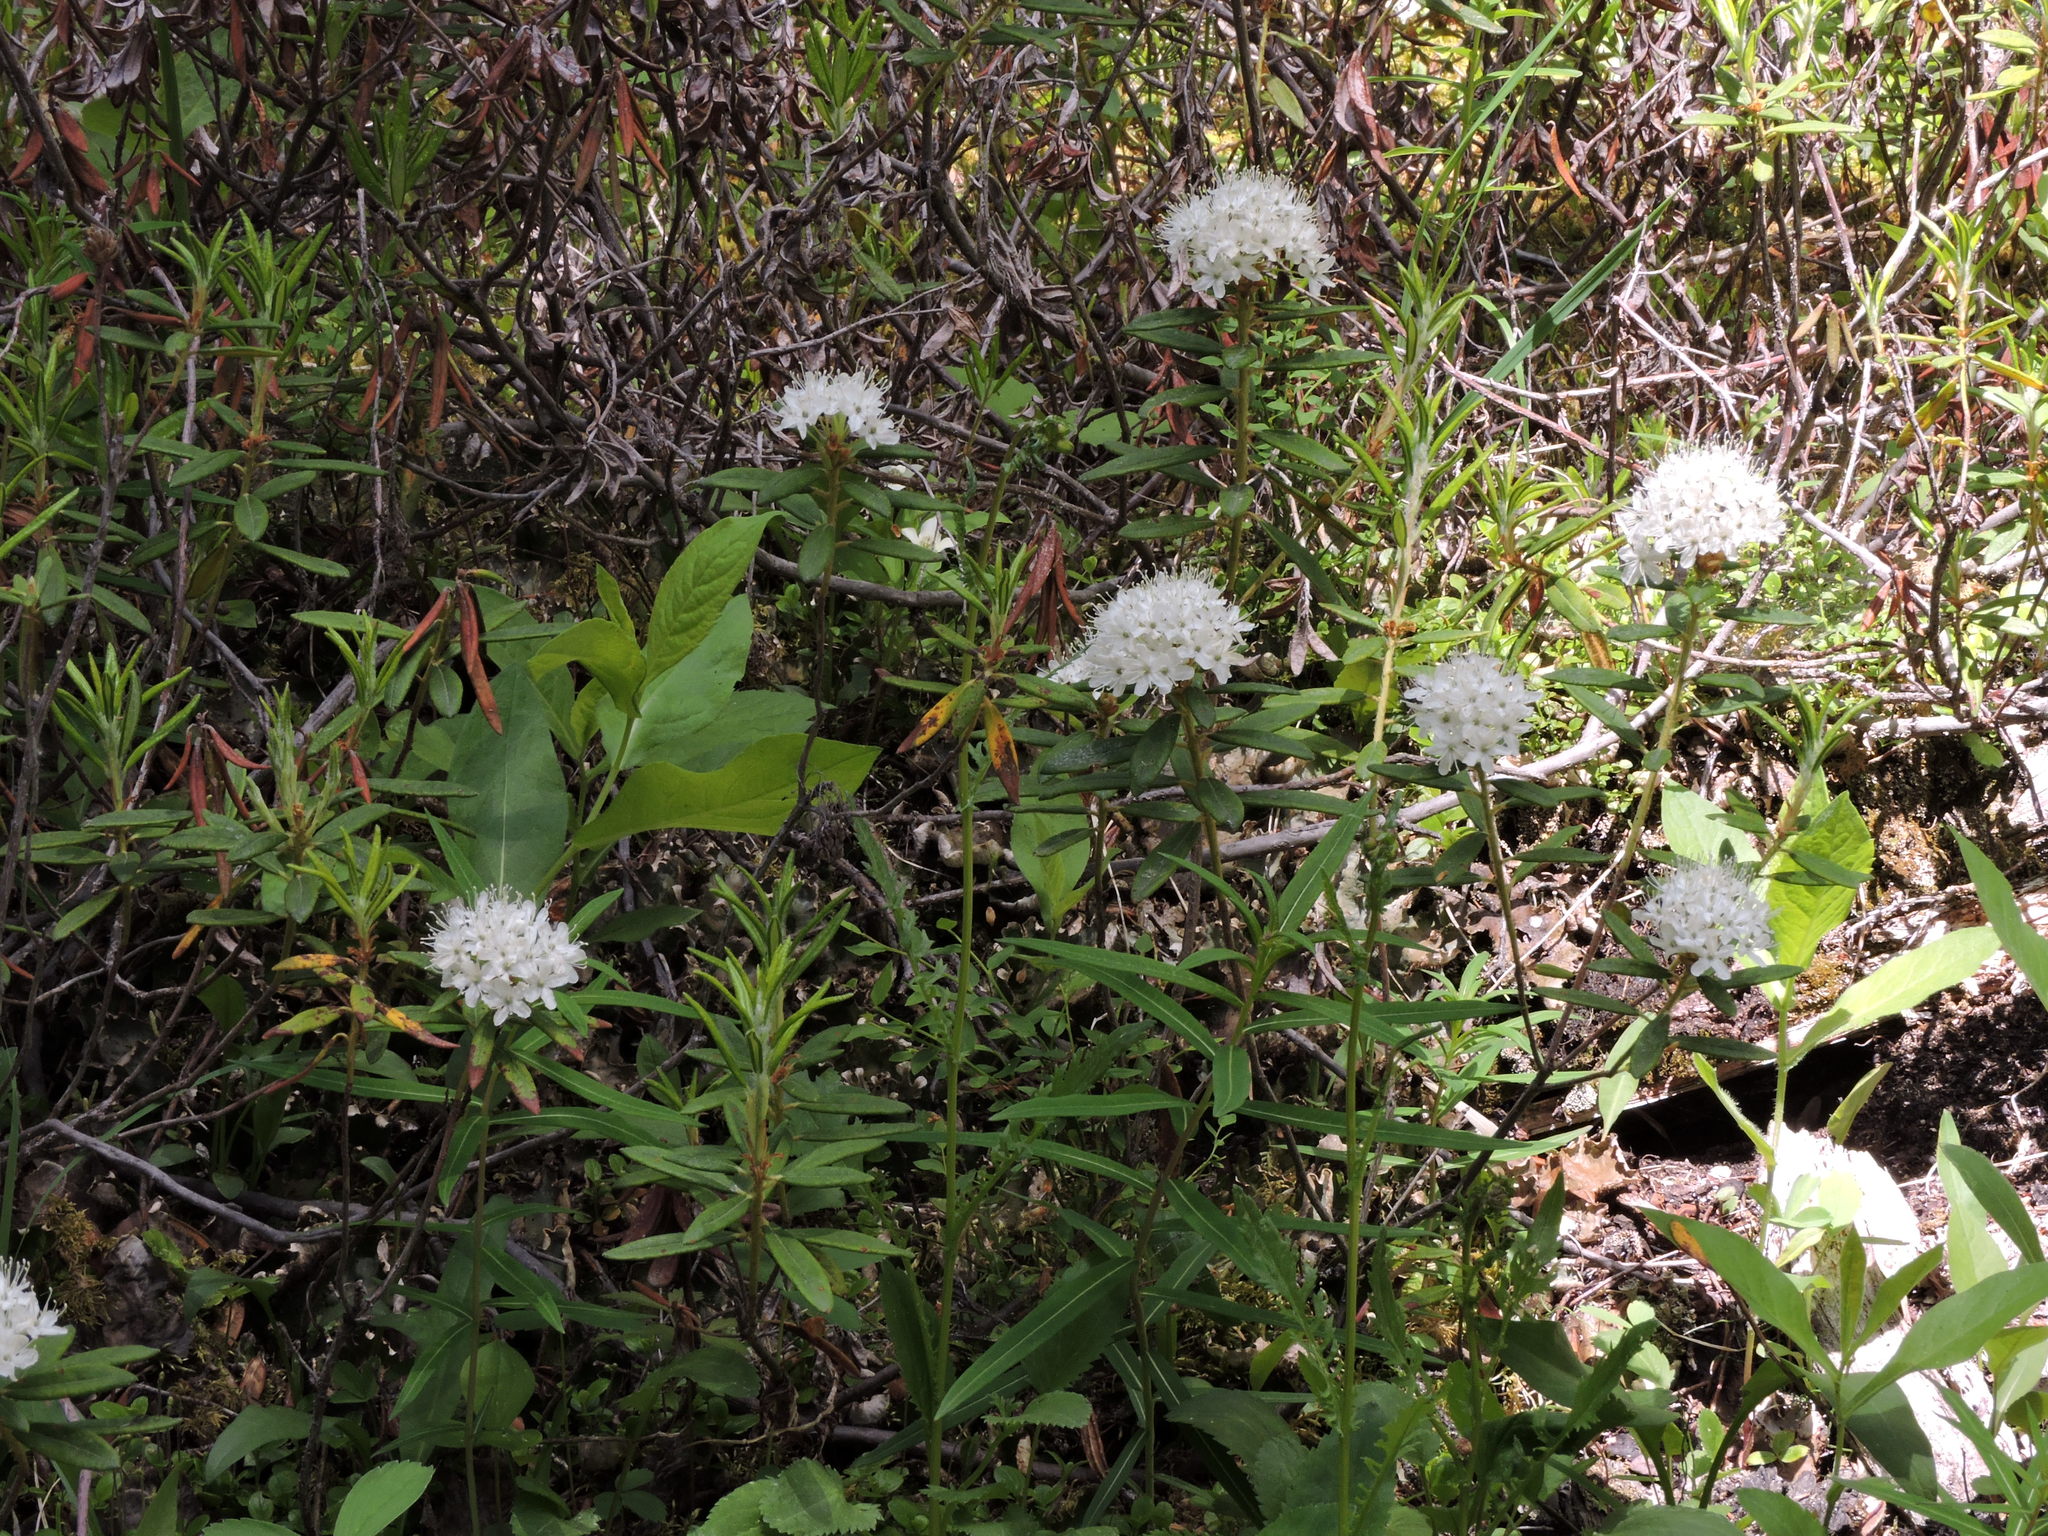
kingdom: Plantae
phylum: Tracheophyta
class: Magnoliopsida
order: Ericales
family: Ericaceae
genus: Rhododendron
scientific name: Rhododendron groenlandicum
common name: Bog labrador tea
